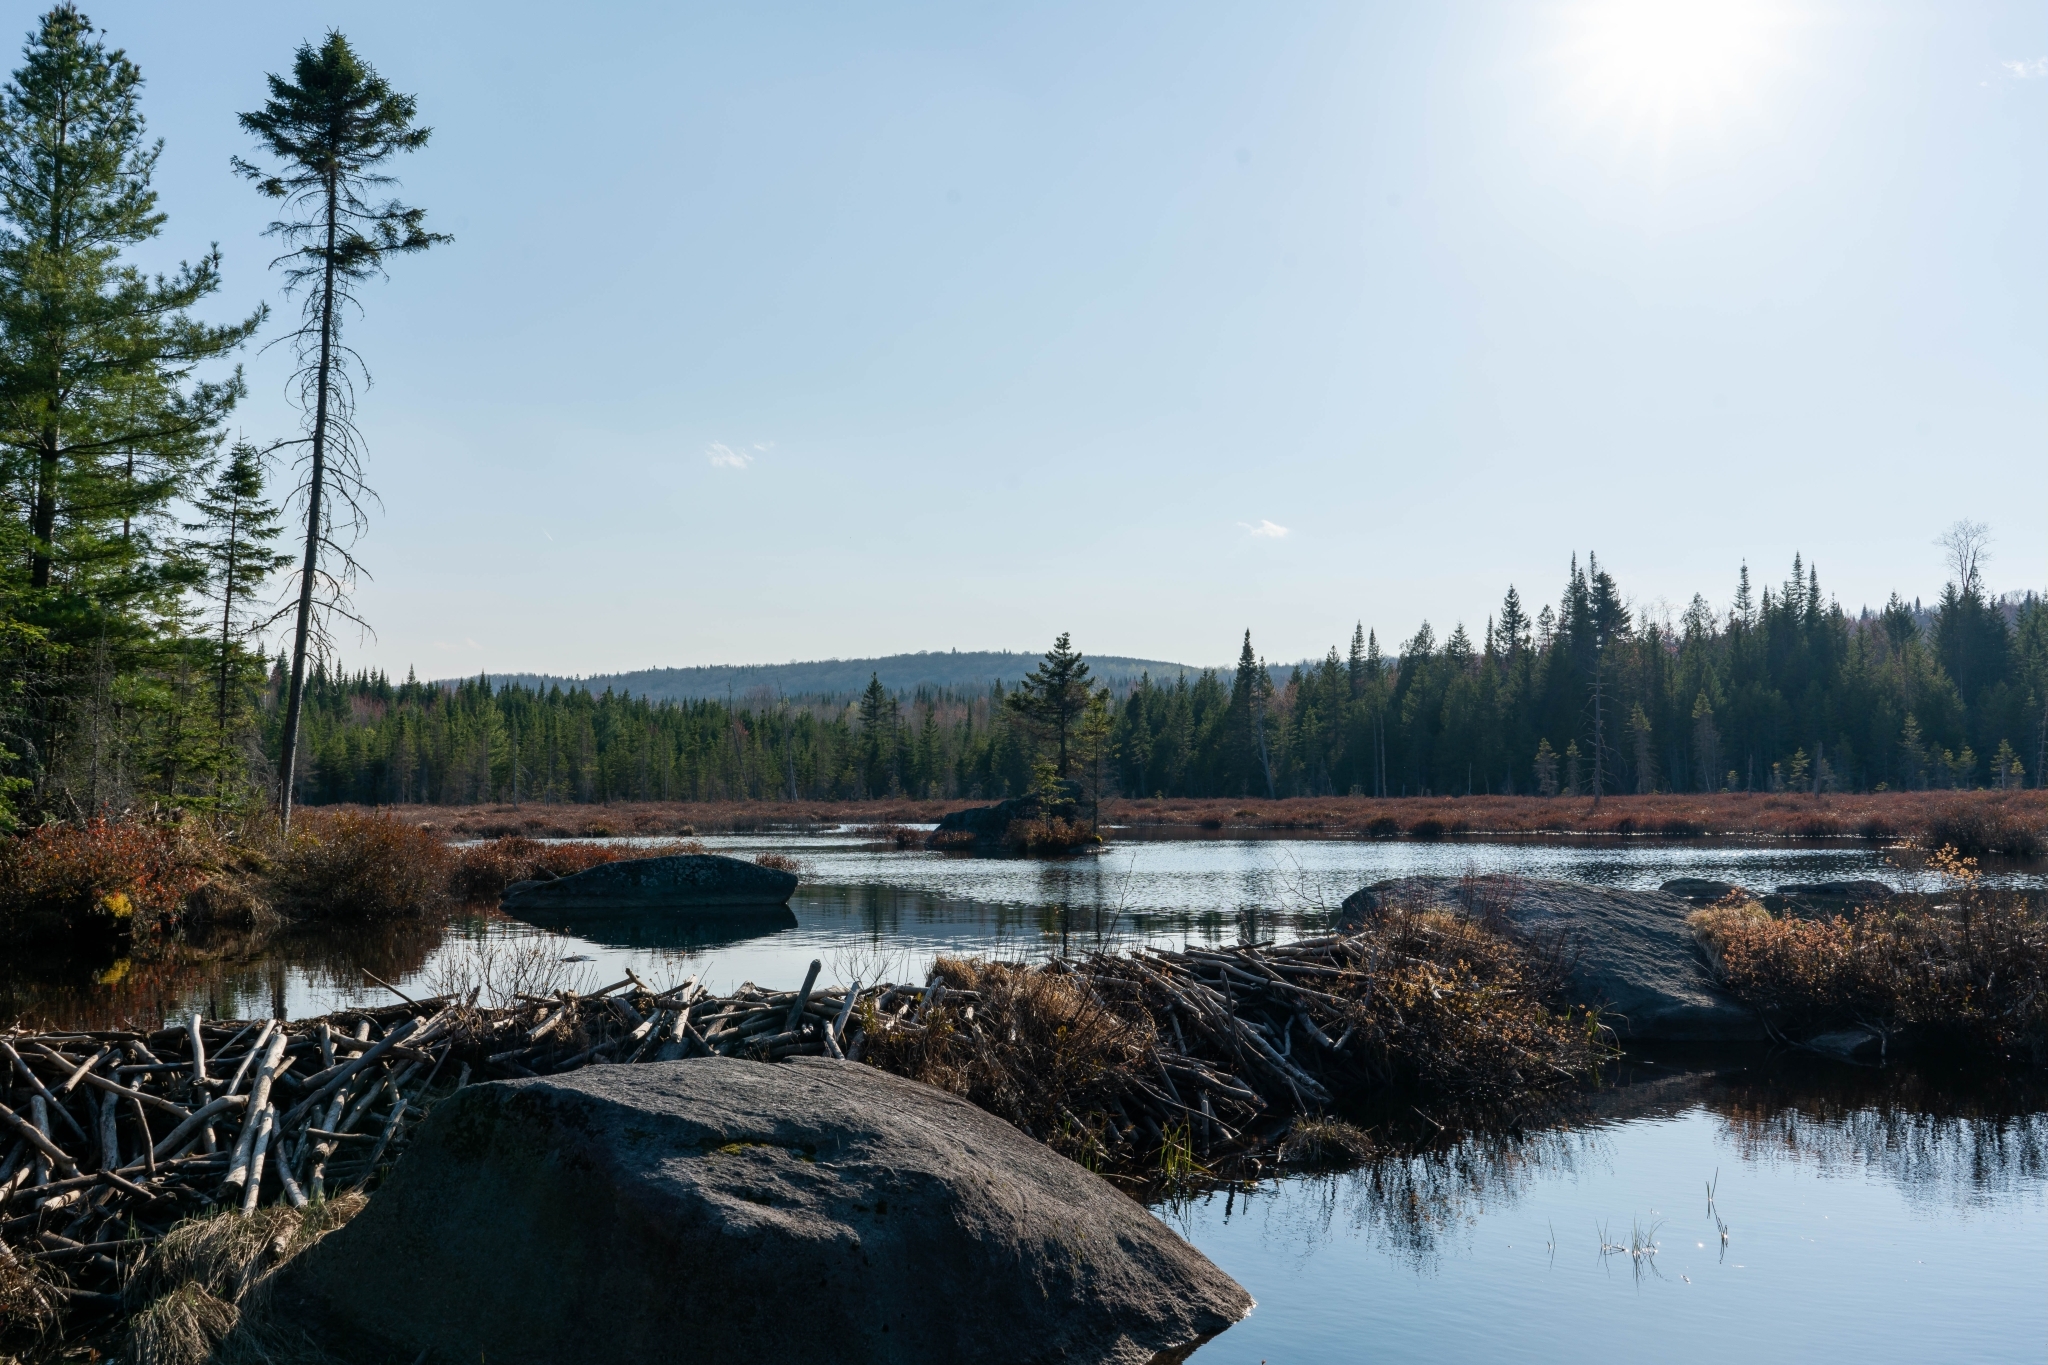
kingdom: Animalia
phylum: Chordata
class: Mammalia
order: Rodentia
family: Castoridae
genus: Castor
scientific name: Castor canadensis
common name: American beaver
